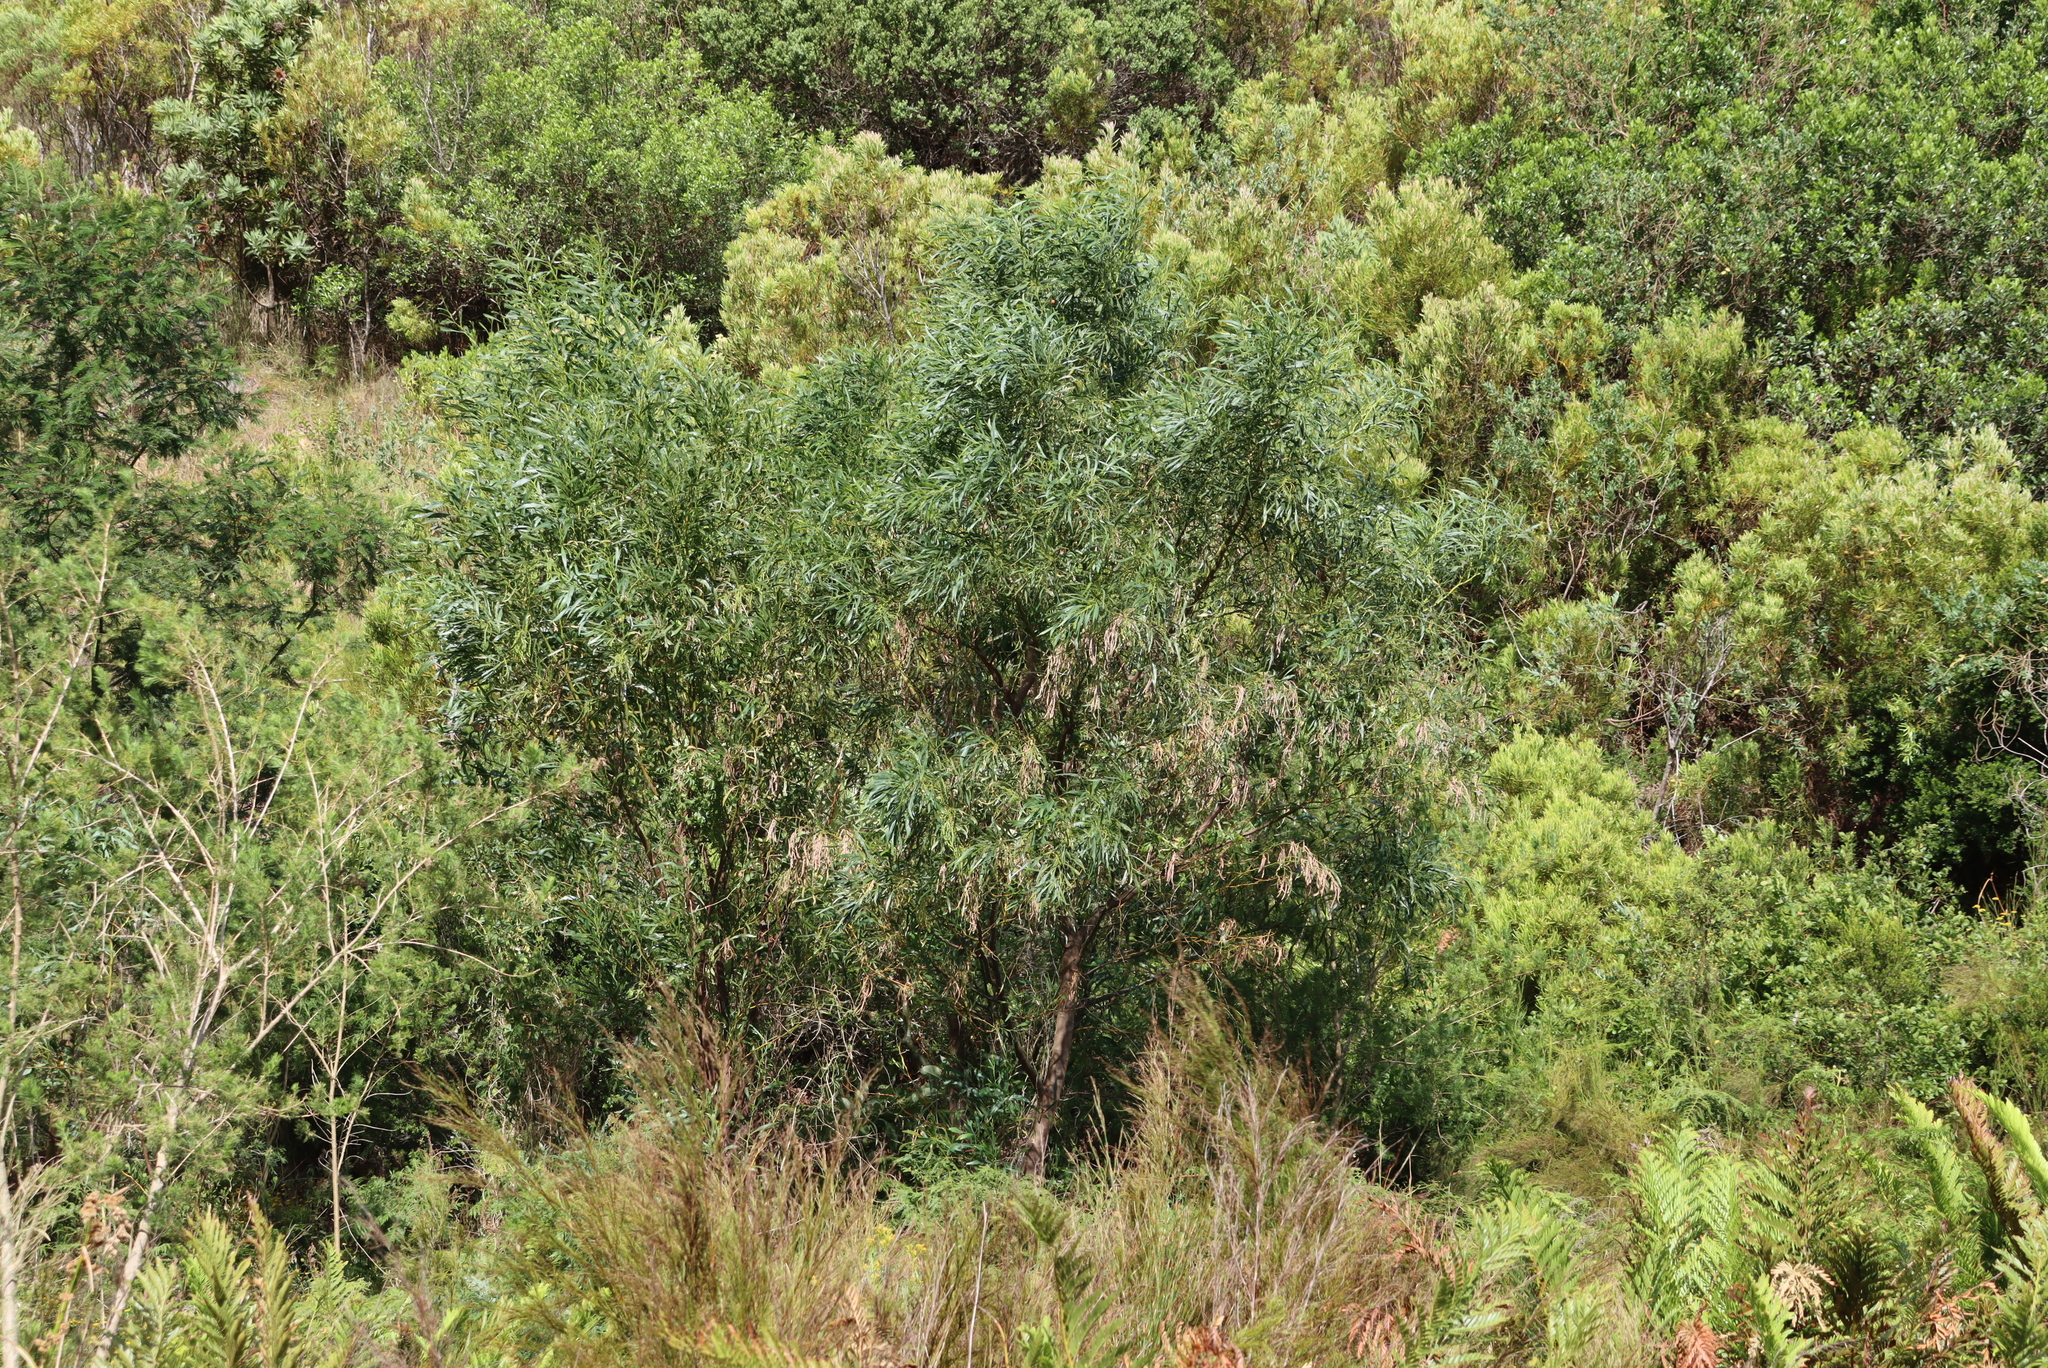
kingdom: Plantae
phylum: Tracheophyta
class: Magnoliopsida
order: Fabales
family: Fabaceae
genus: Acacia
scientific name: Acacia saligna
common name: Orange wattle
